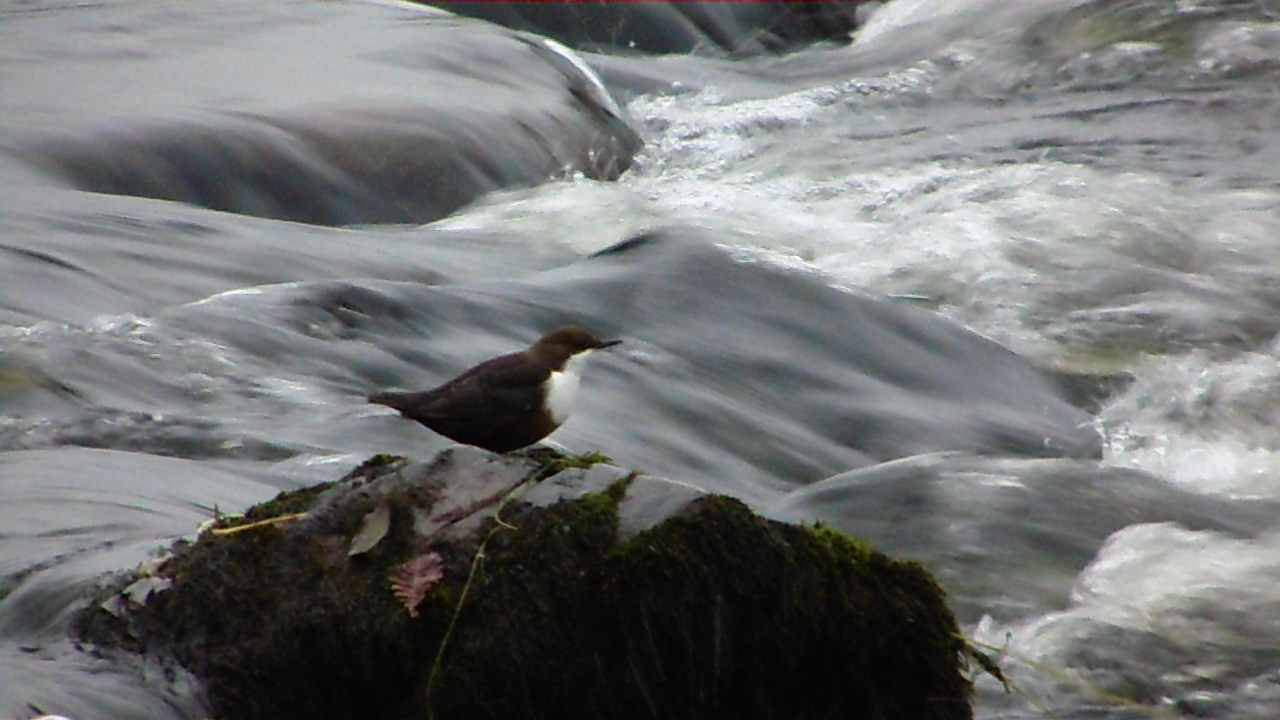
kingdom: Animalia
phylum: Chordata
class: Aves
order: Passeriformes
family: Cinclidae
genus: Cinclus
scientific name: Cinclus cinclus
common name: White-throated dipper
